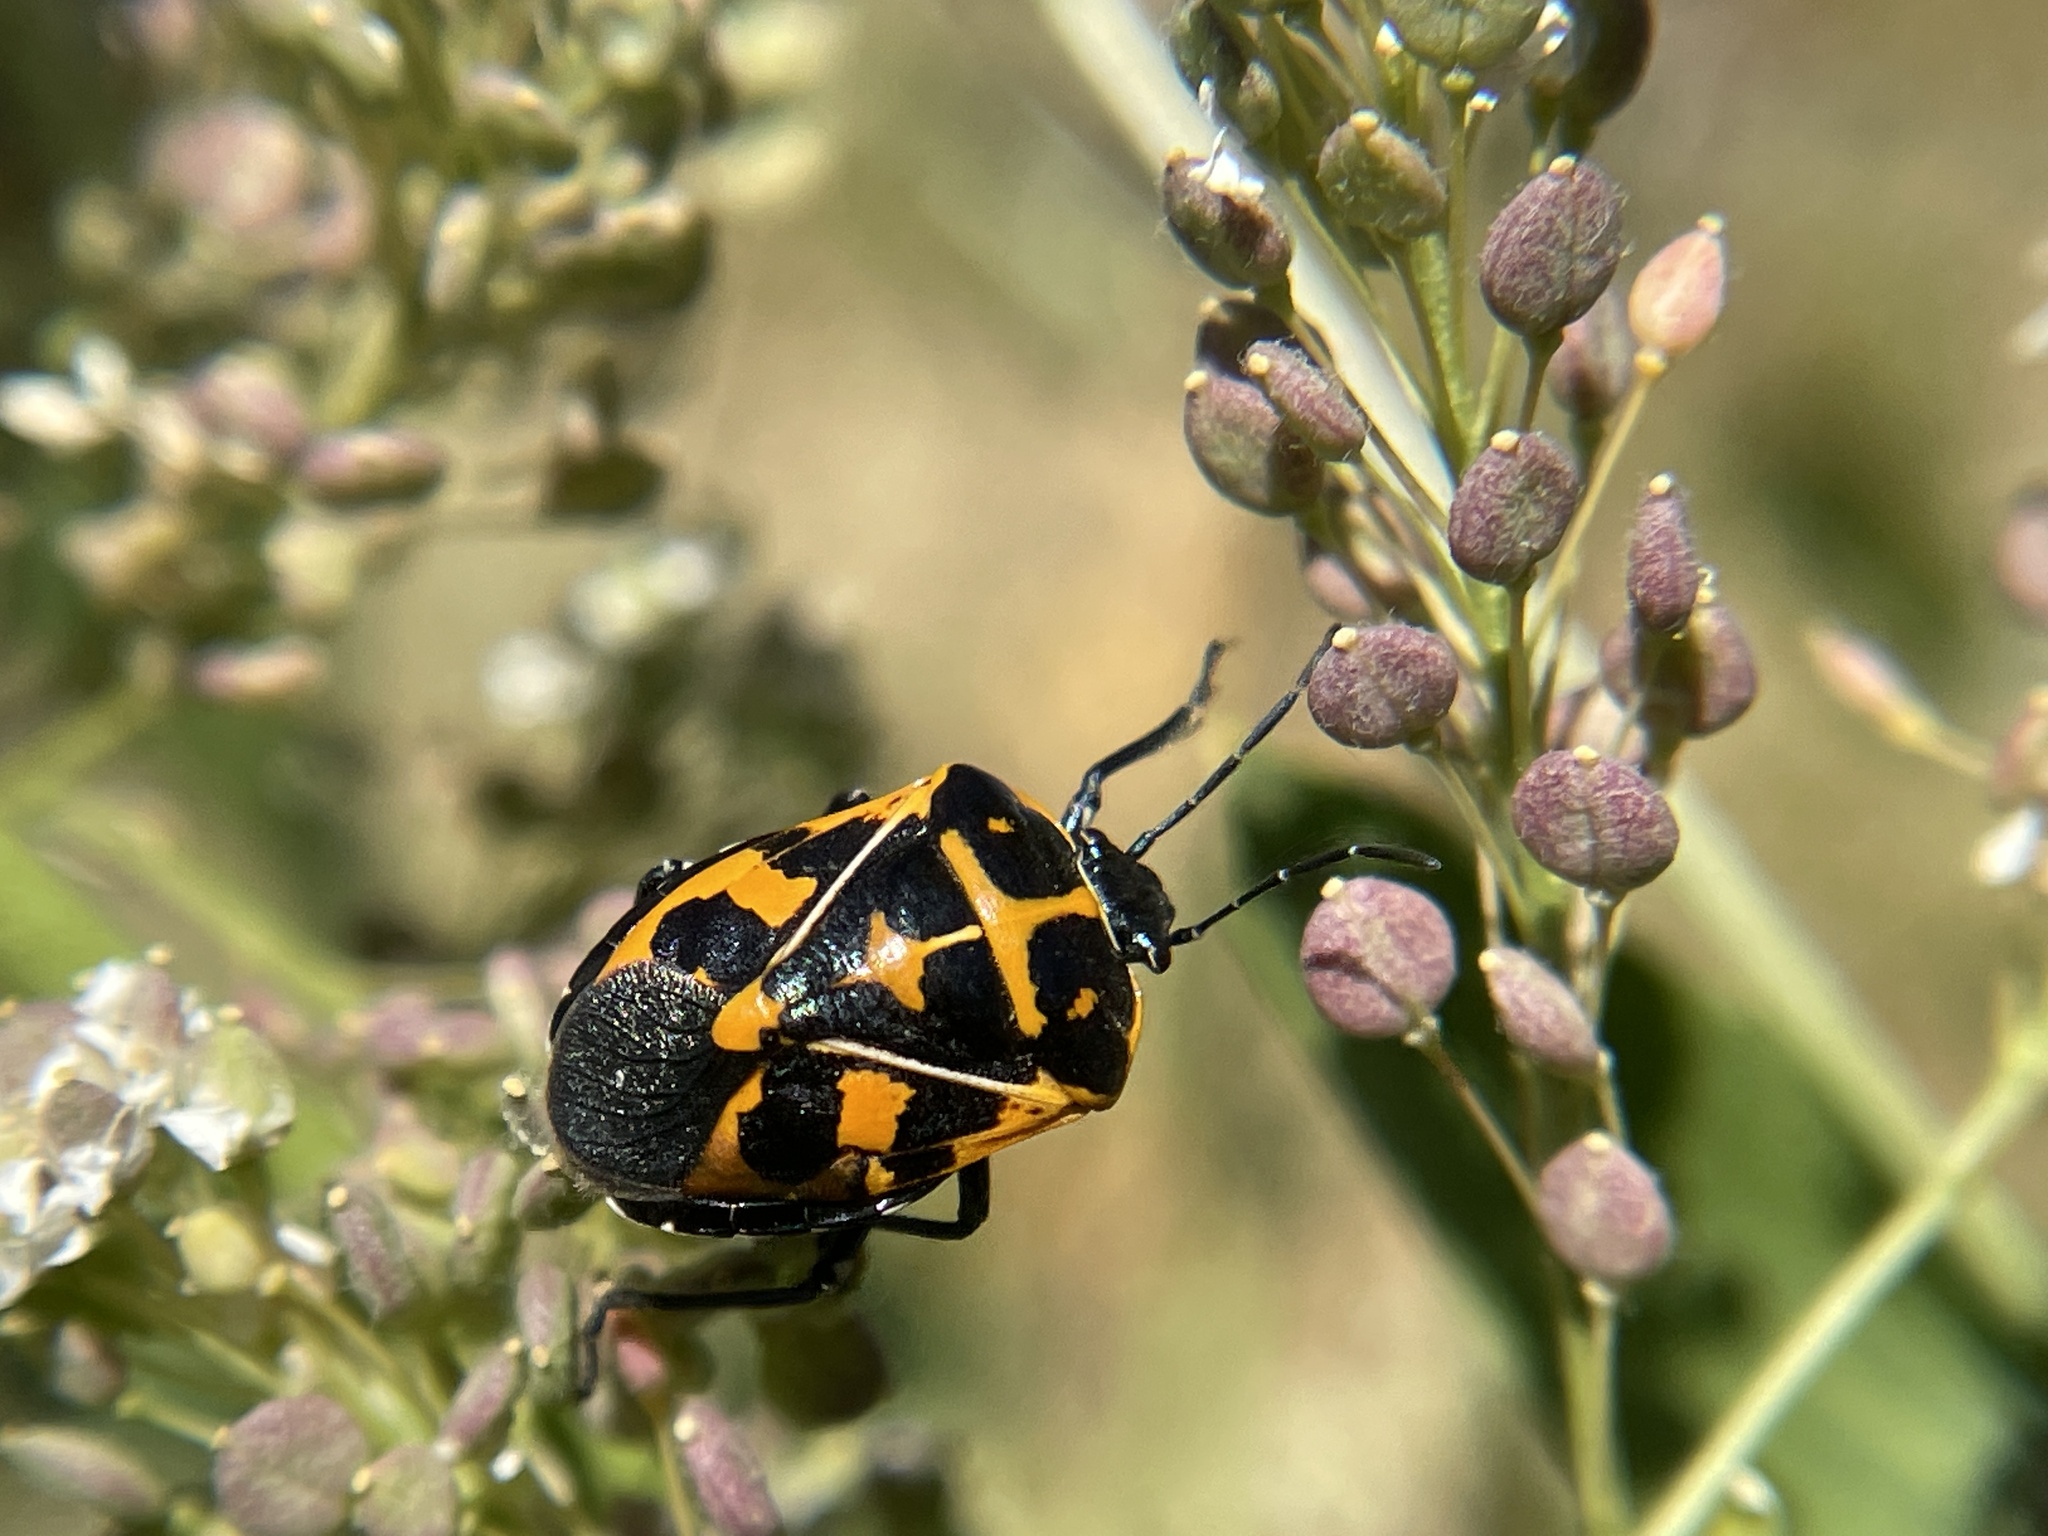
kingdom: Animalia
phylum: Arthropoda
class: Insecta
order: Hemiptera
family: Pentatomidae
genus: Murgantia
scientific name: Murgantia histrionica
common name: Harlequin bug
